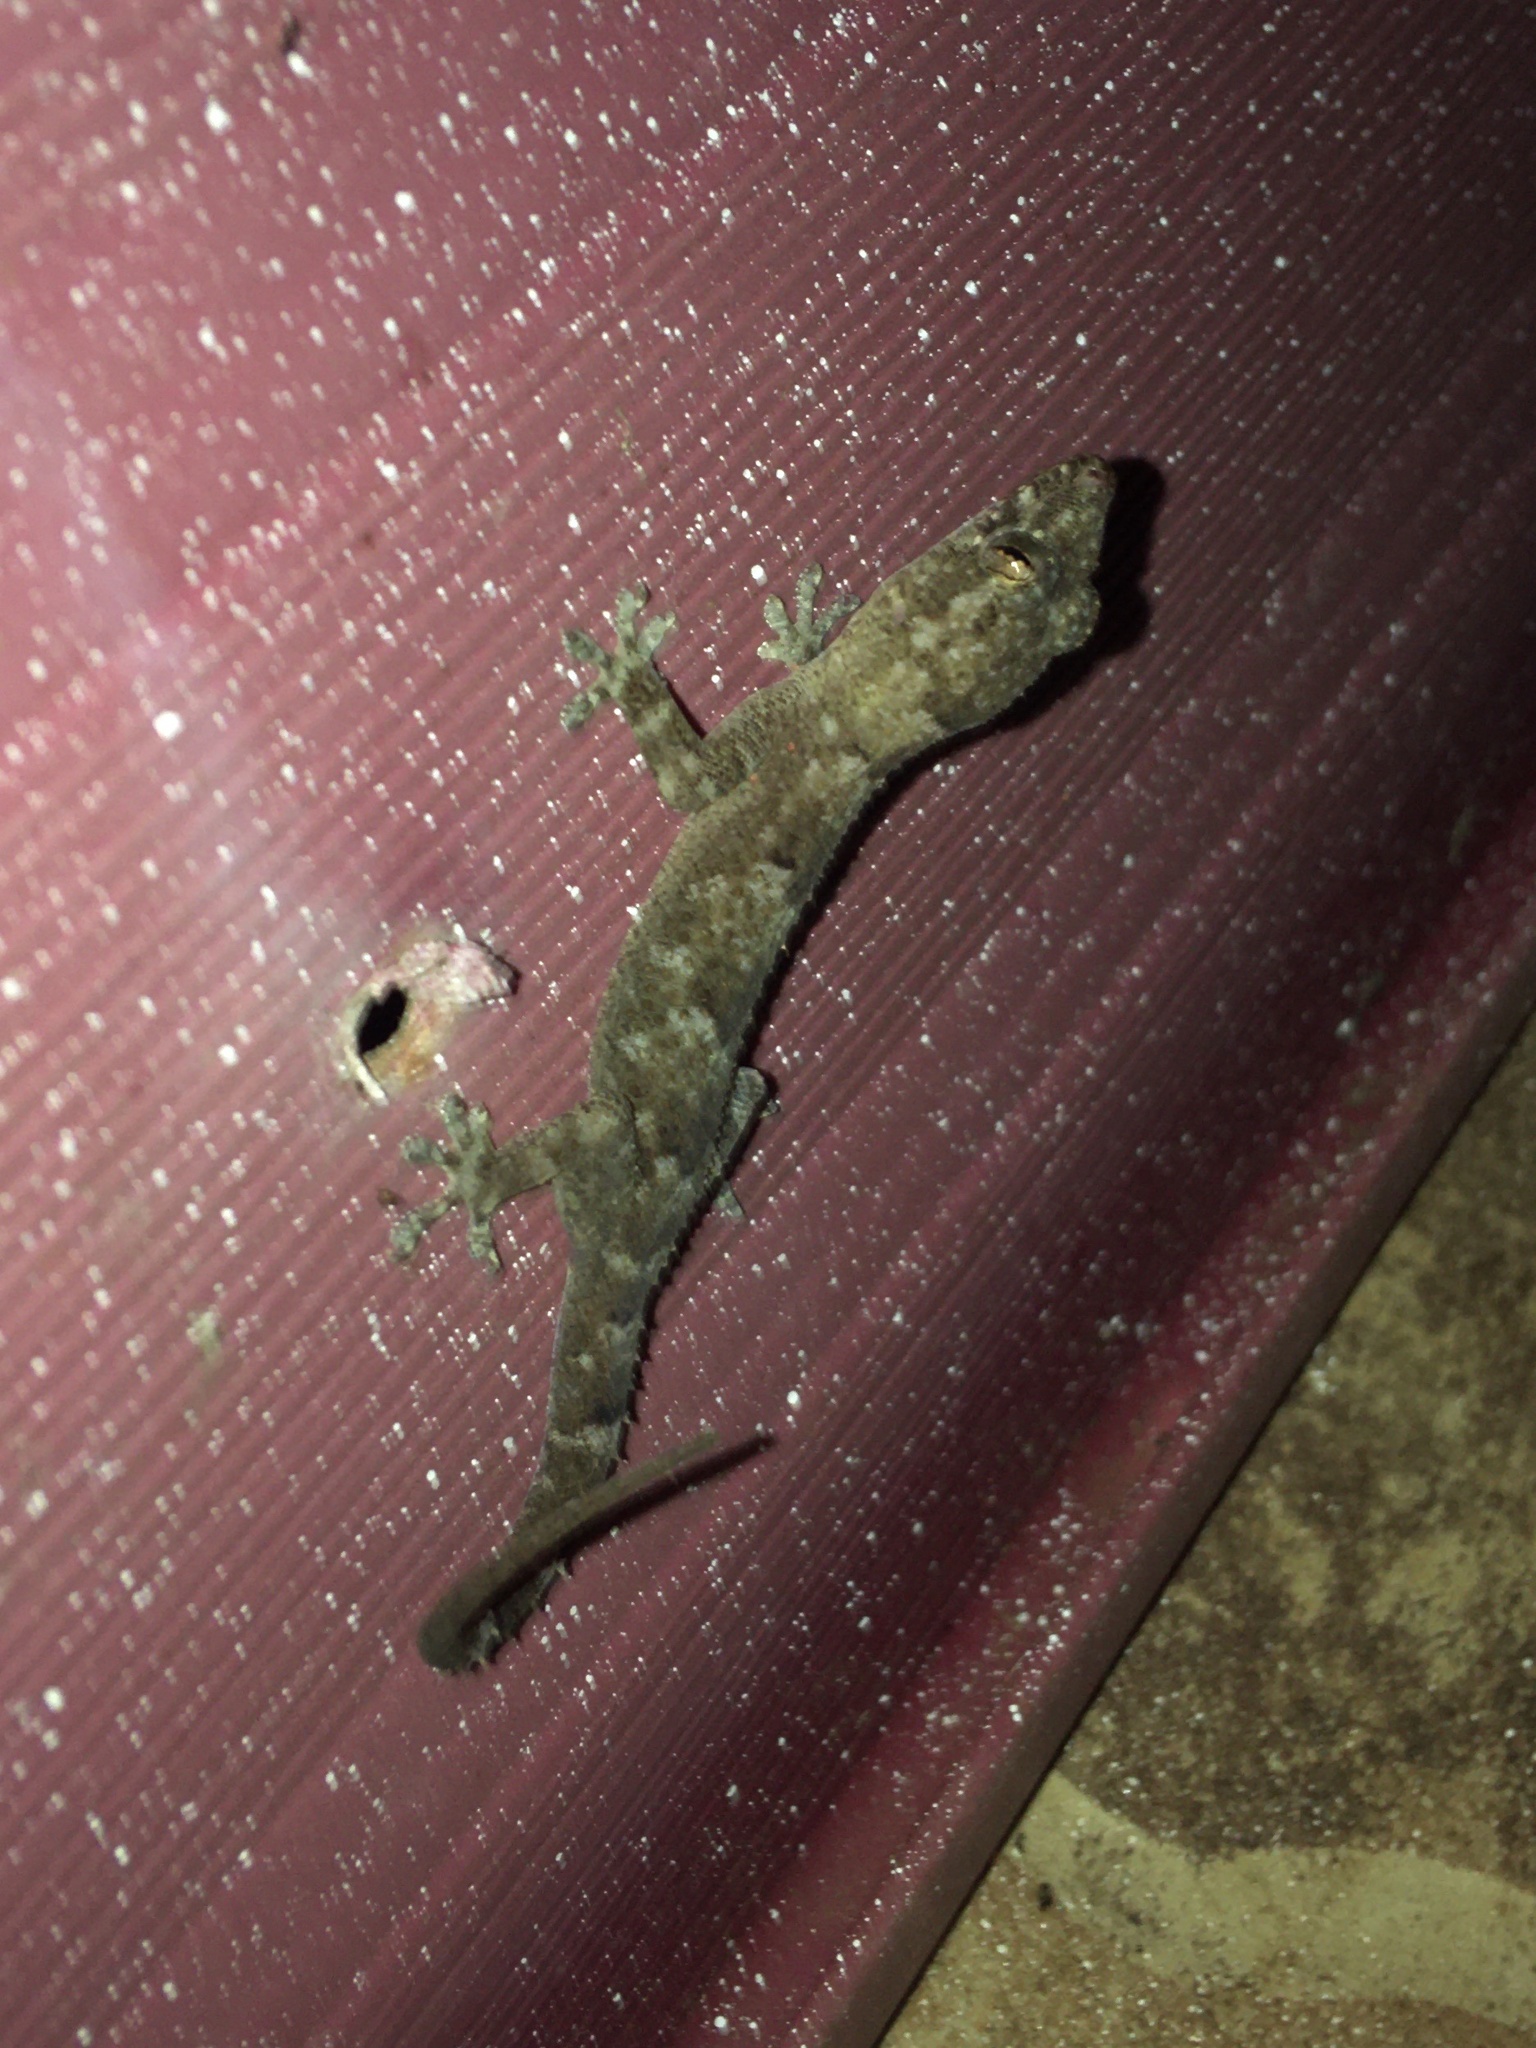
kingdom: Animalia
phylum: Chordata
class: Squamata
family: Gekkonidae
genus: Hemidactylus
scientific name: Hemidactylus mabouia
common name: House gecko
